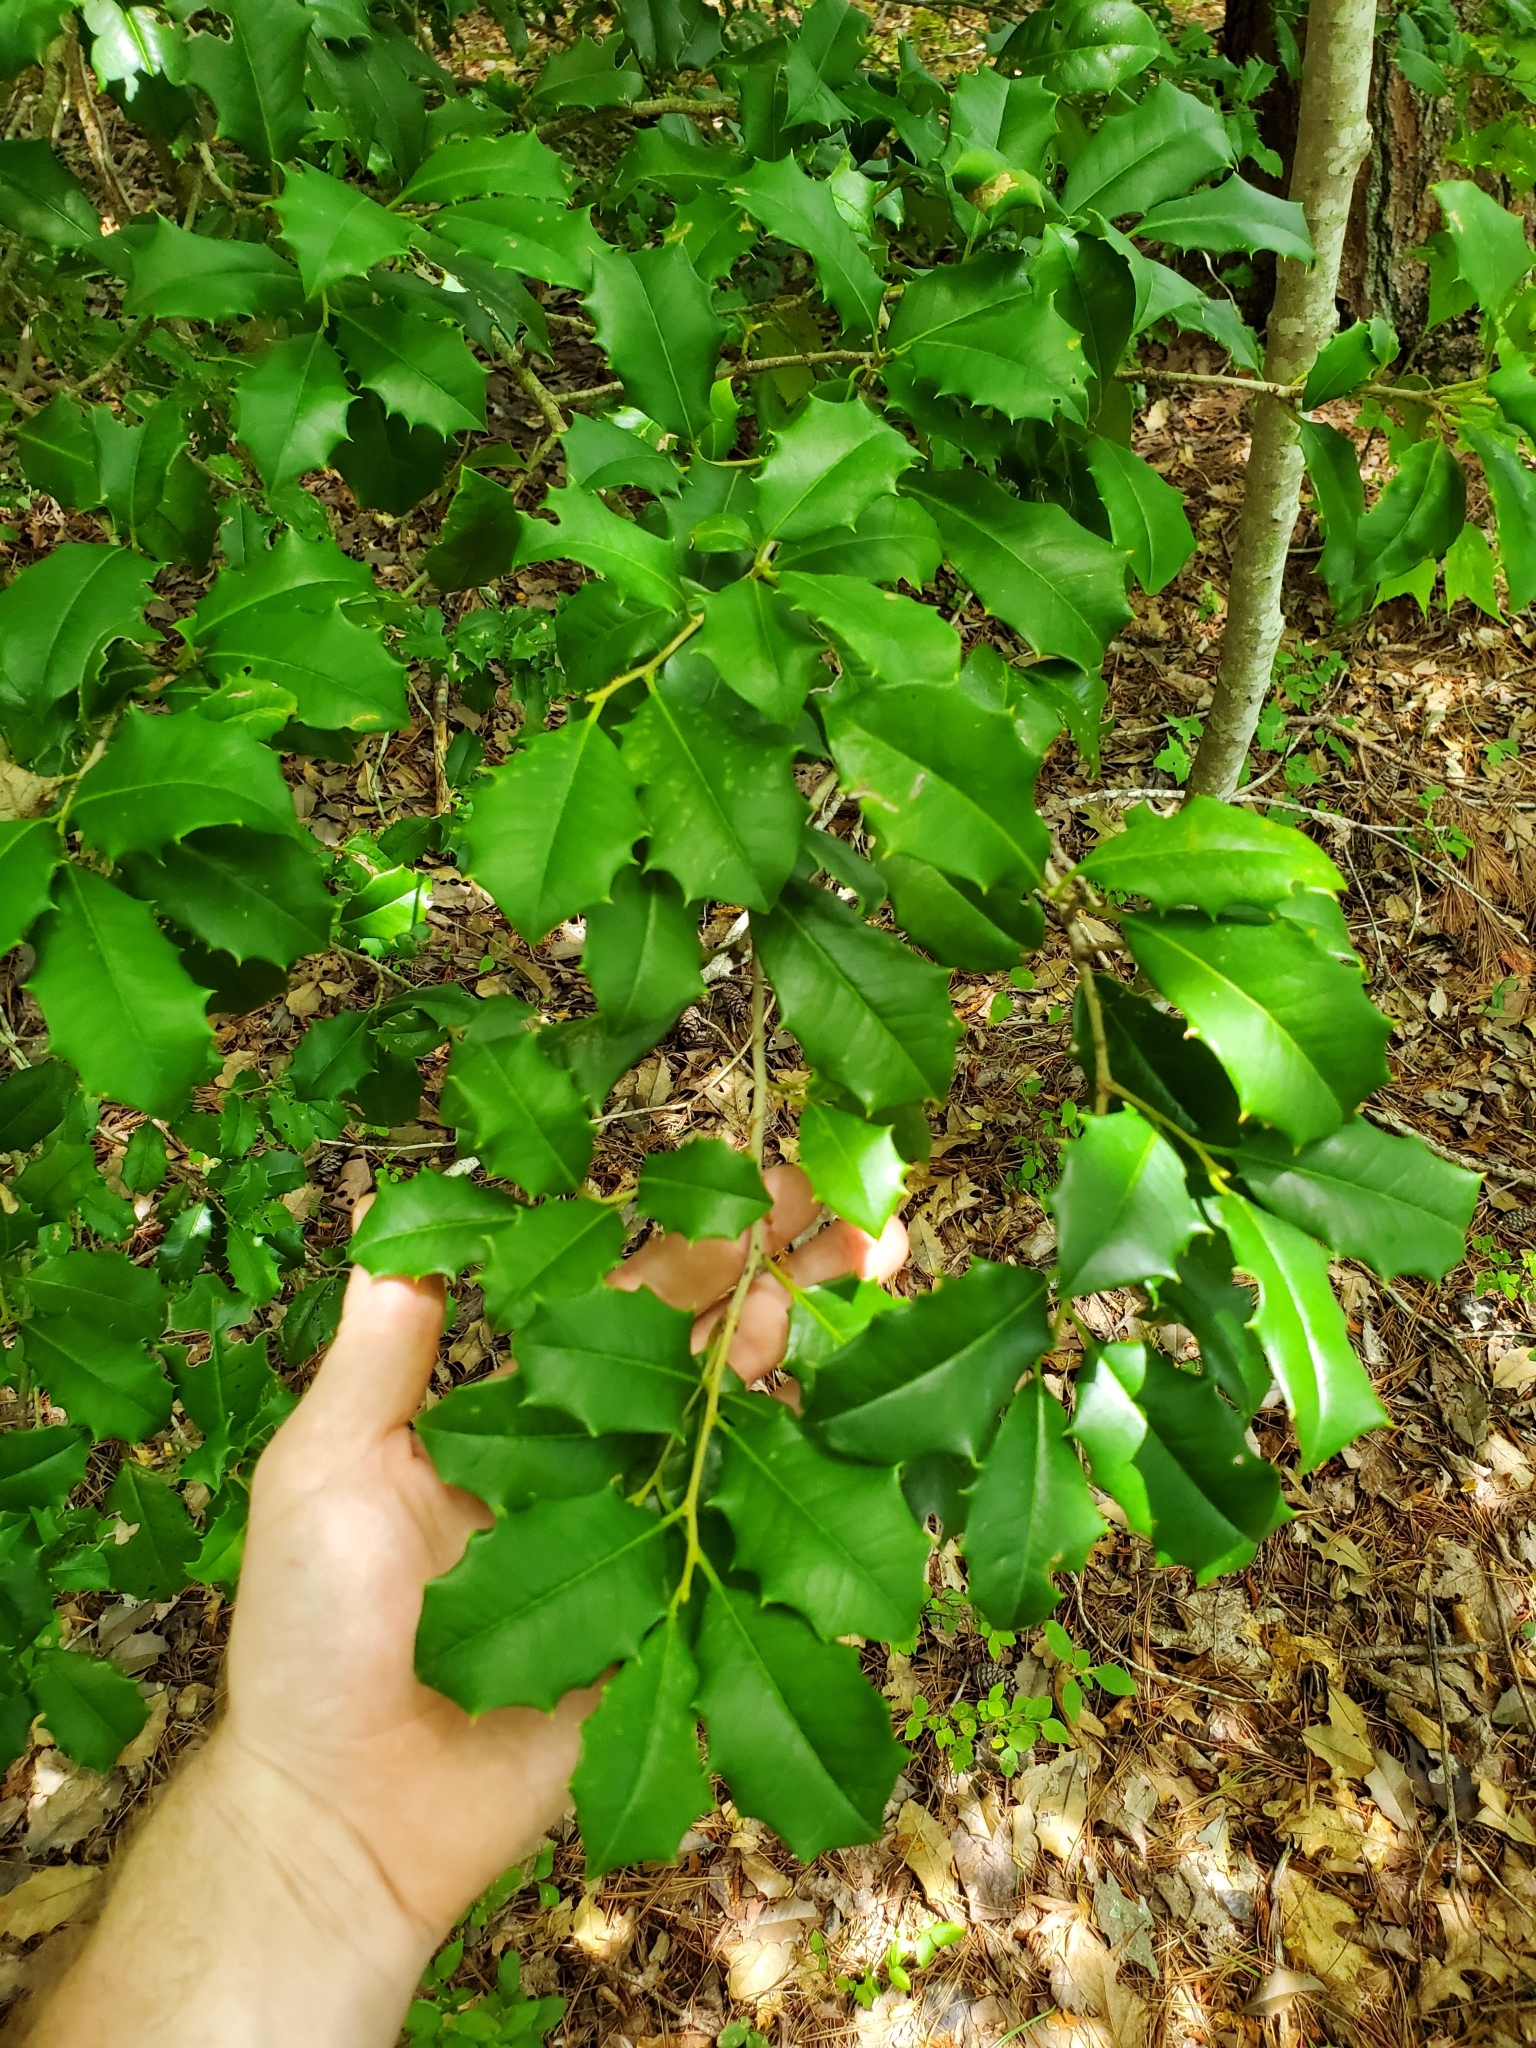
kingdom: Plantae
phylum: Tracheophyta
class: Magnoliopsida
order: Aquifoliales
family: Aquifoliaceae
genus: Ilex
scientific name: Ilex opaca
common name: American holly
